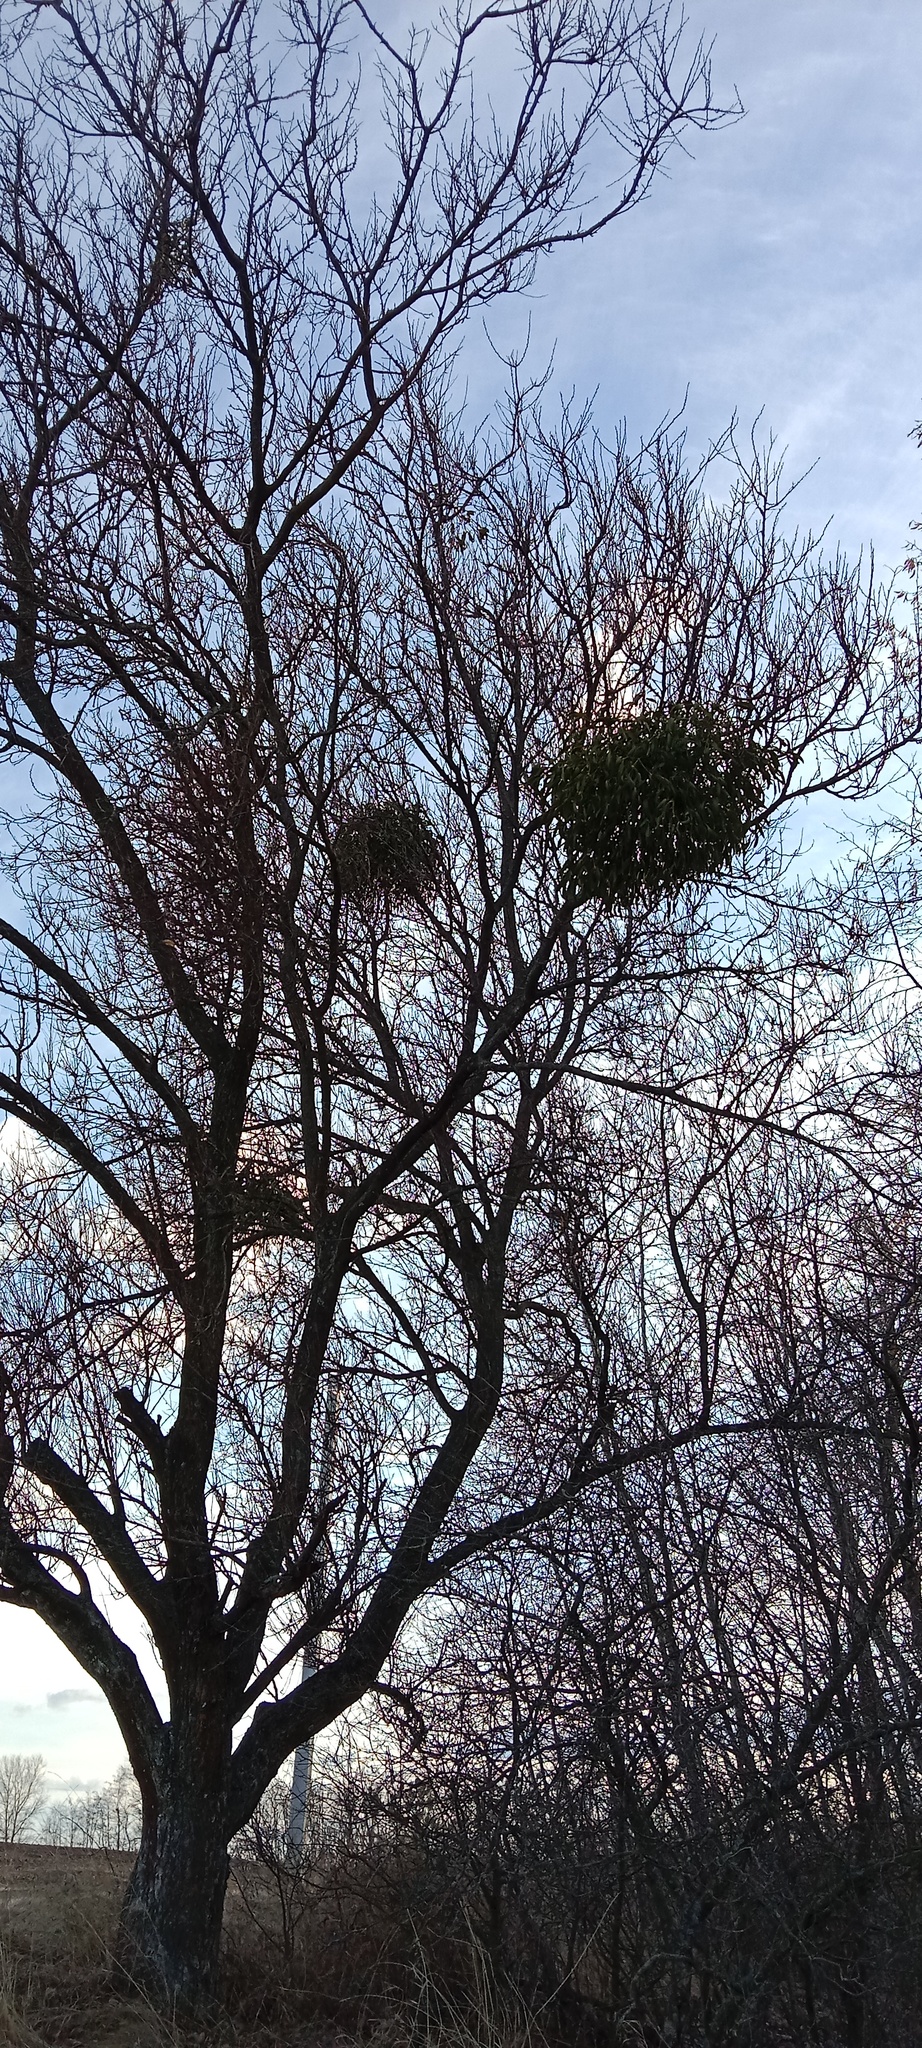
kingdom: Plantae
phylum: Tracheophyta
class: Magnoliopsida
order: Santalales
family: Viscaceae
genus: Viscum
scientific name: Viscum album
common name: Mistletoe
